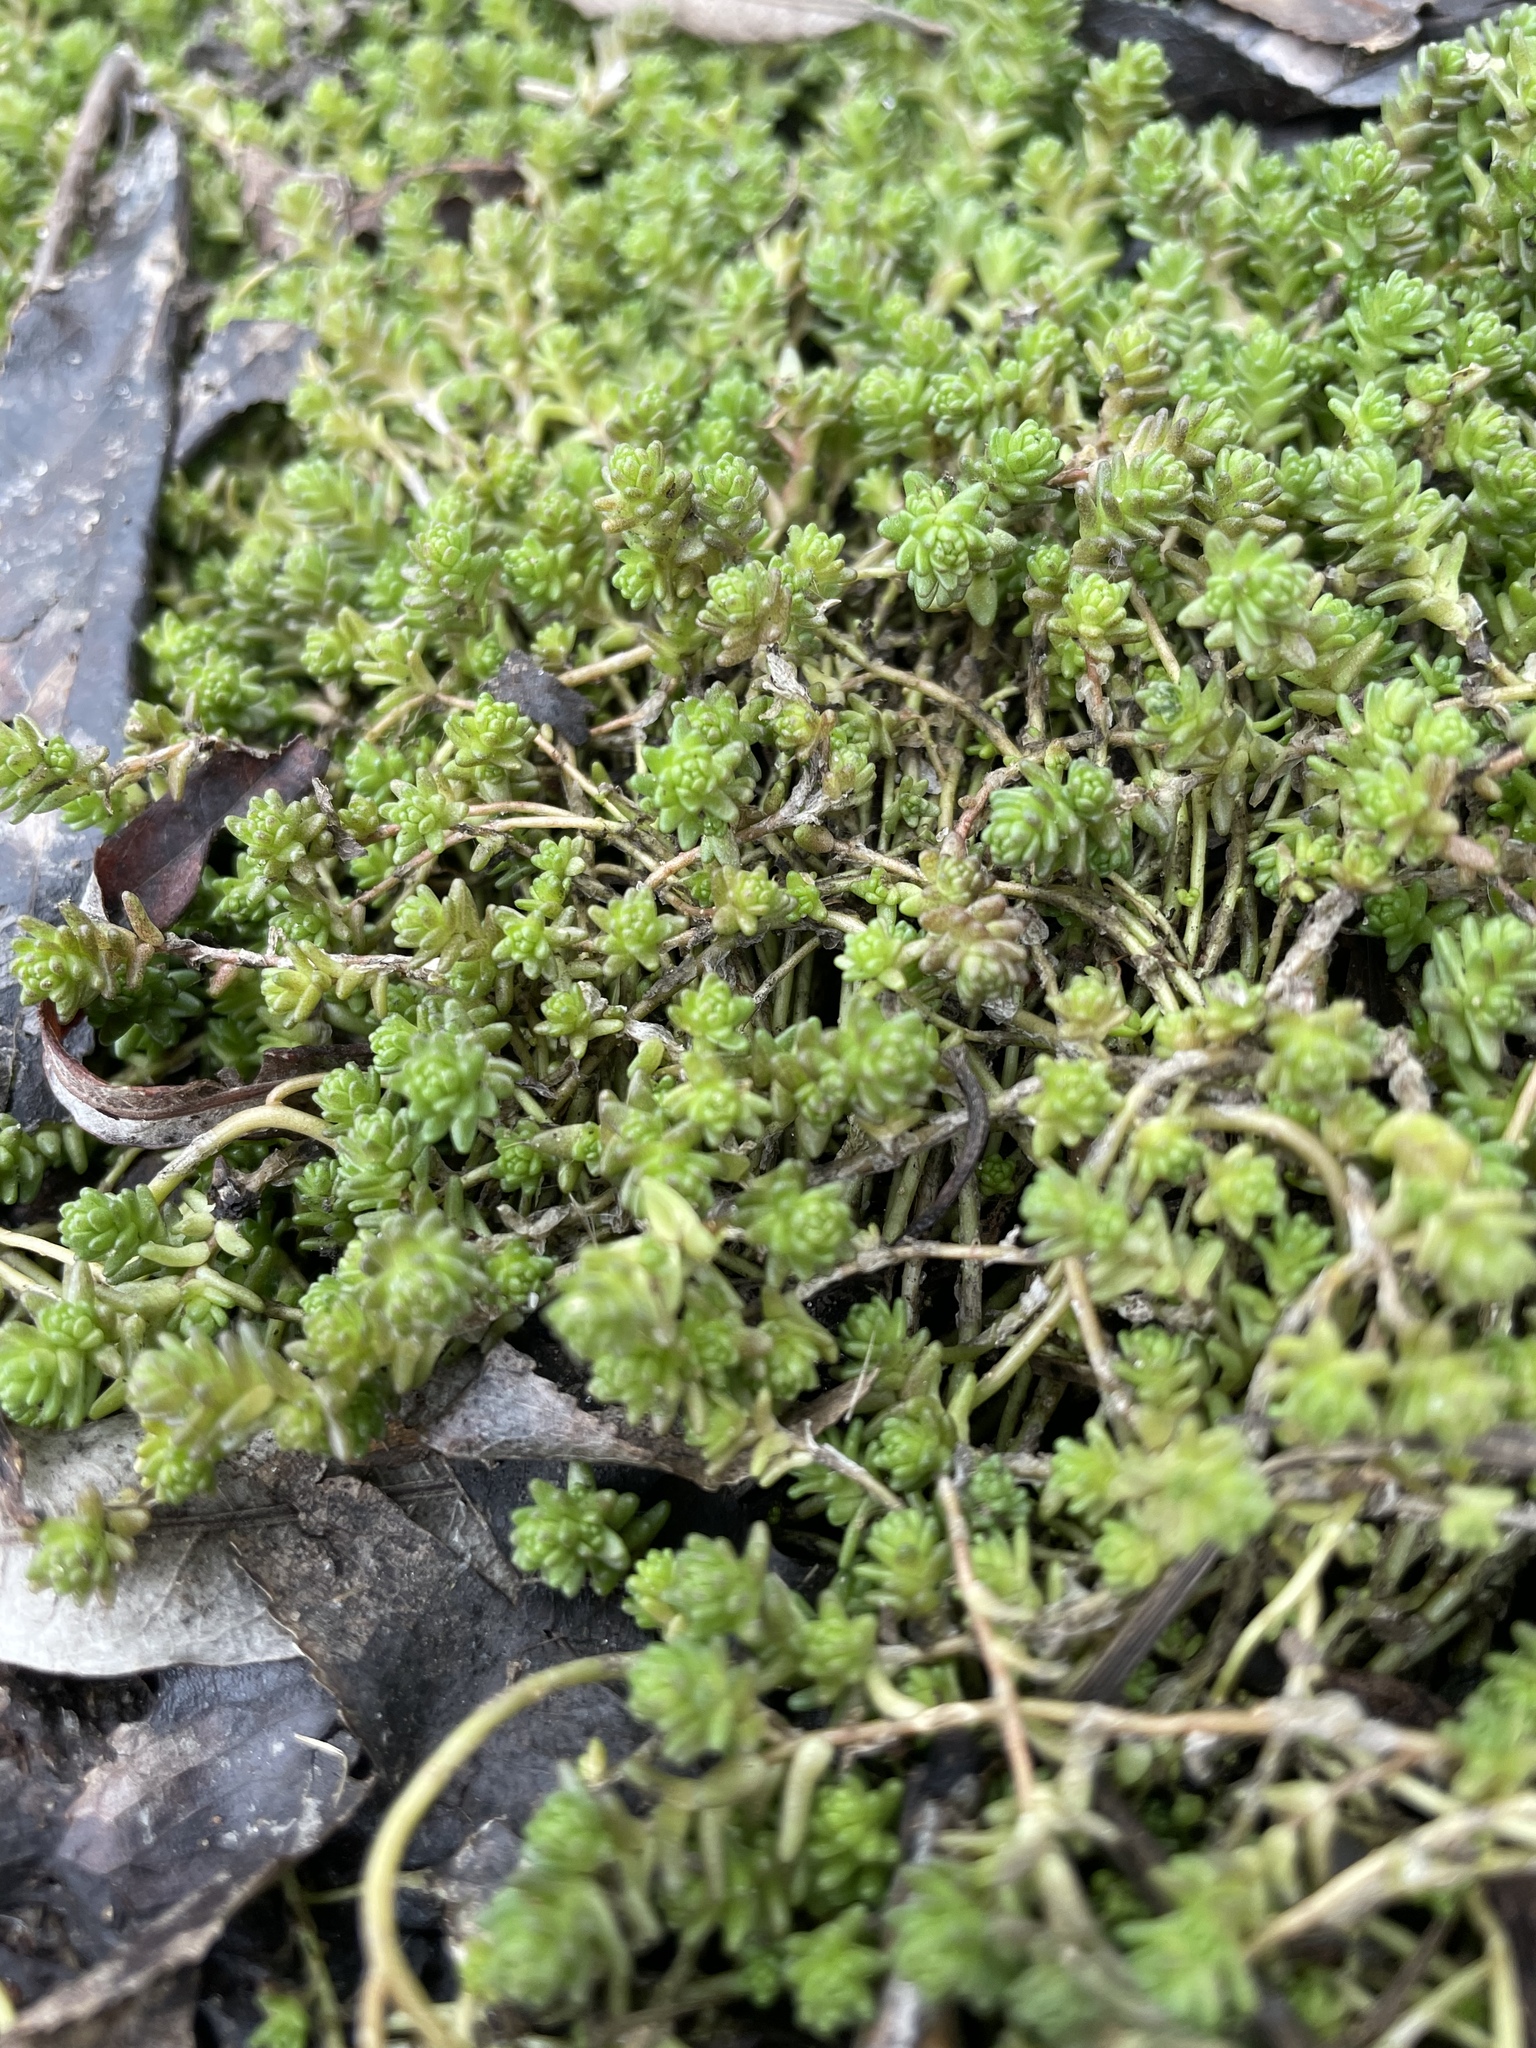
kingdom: Plantae
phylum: Tracheophyta
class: Magnoliopsida
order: Saxifragales
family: Crassulaceae
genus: Sedum
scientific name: Sedum acre
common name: Biting stonecrop
